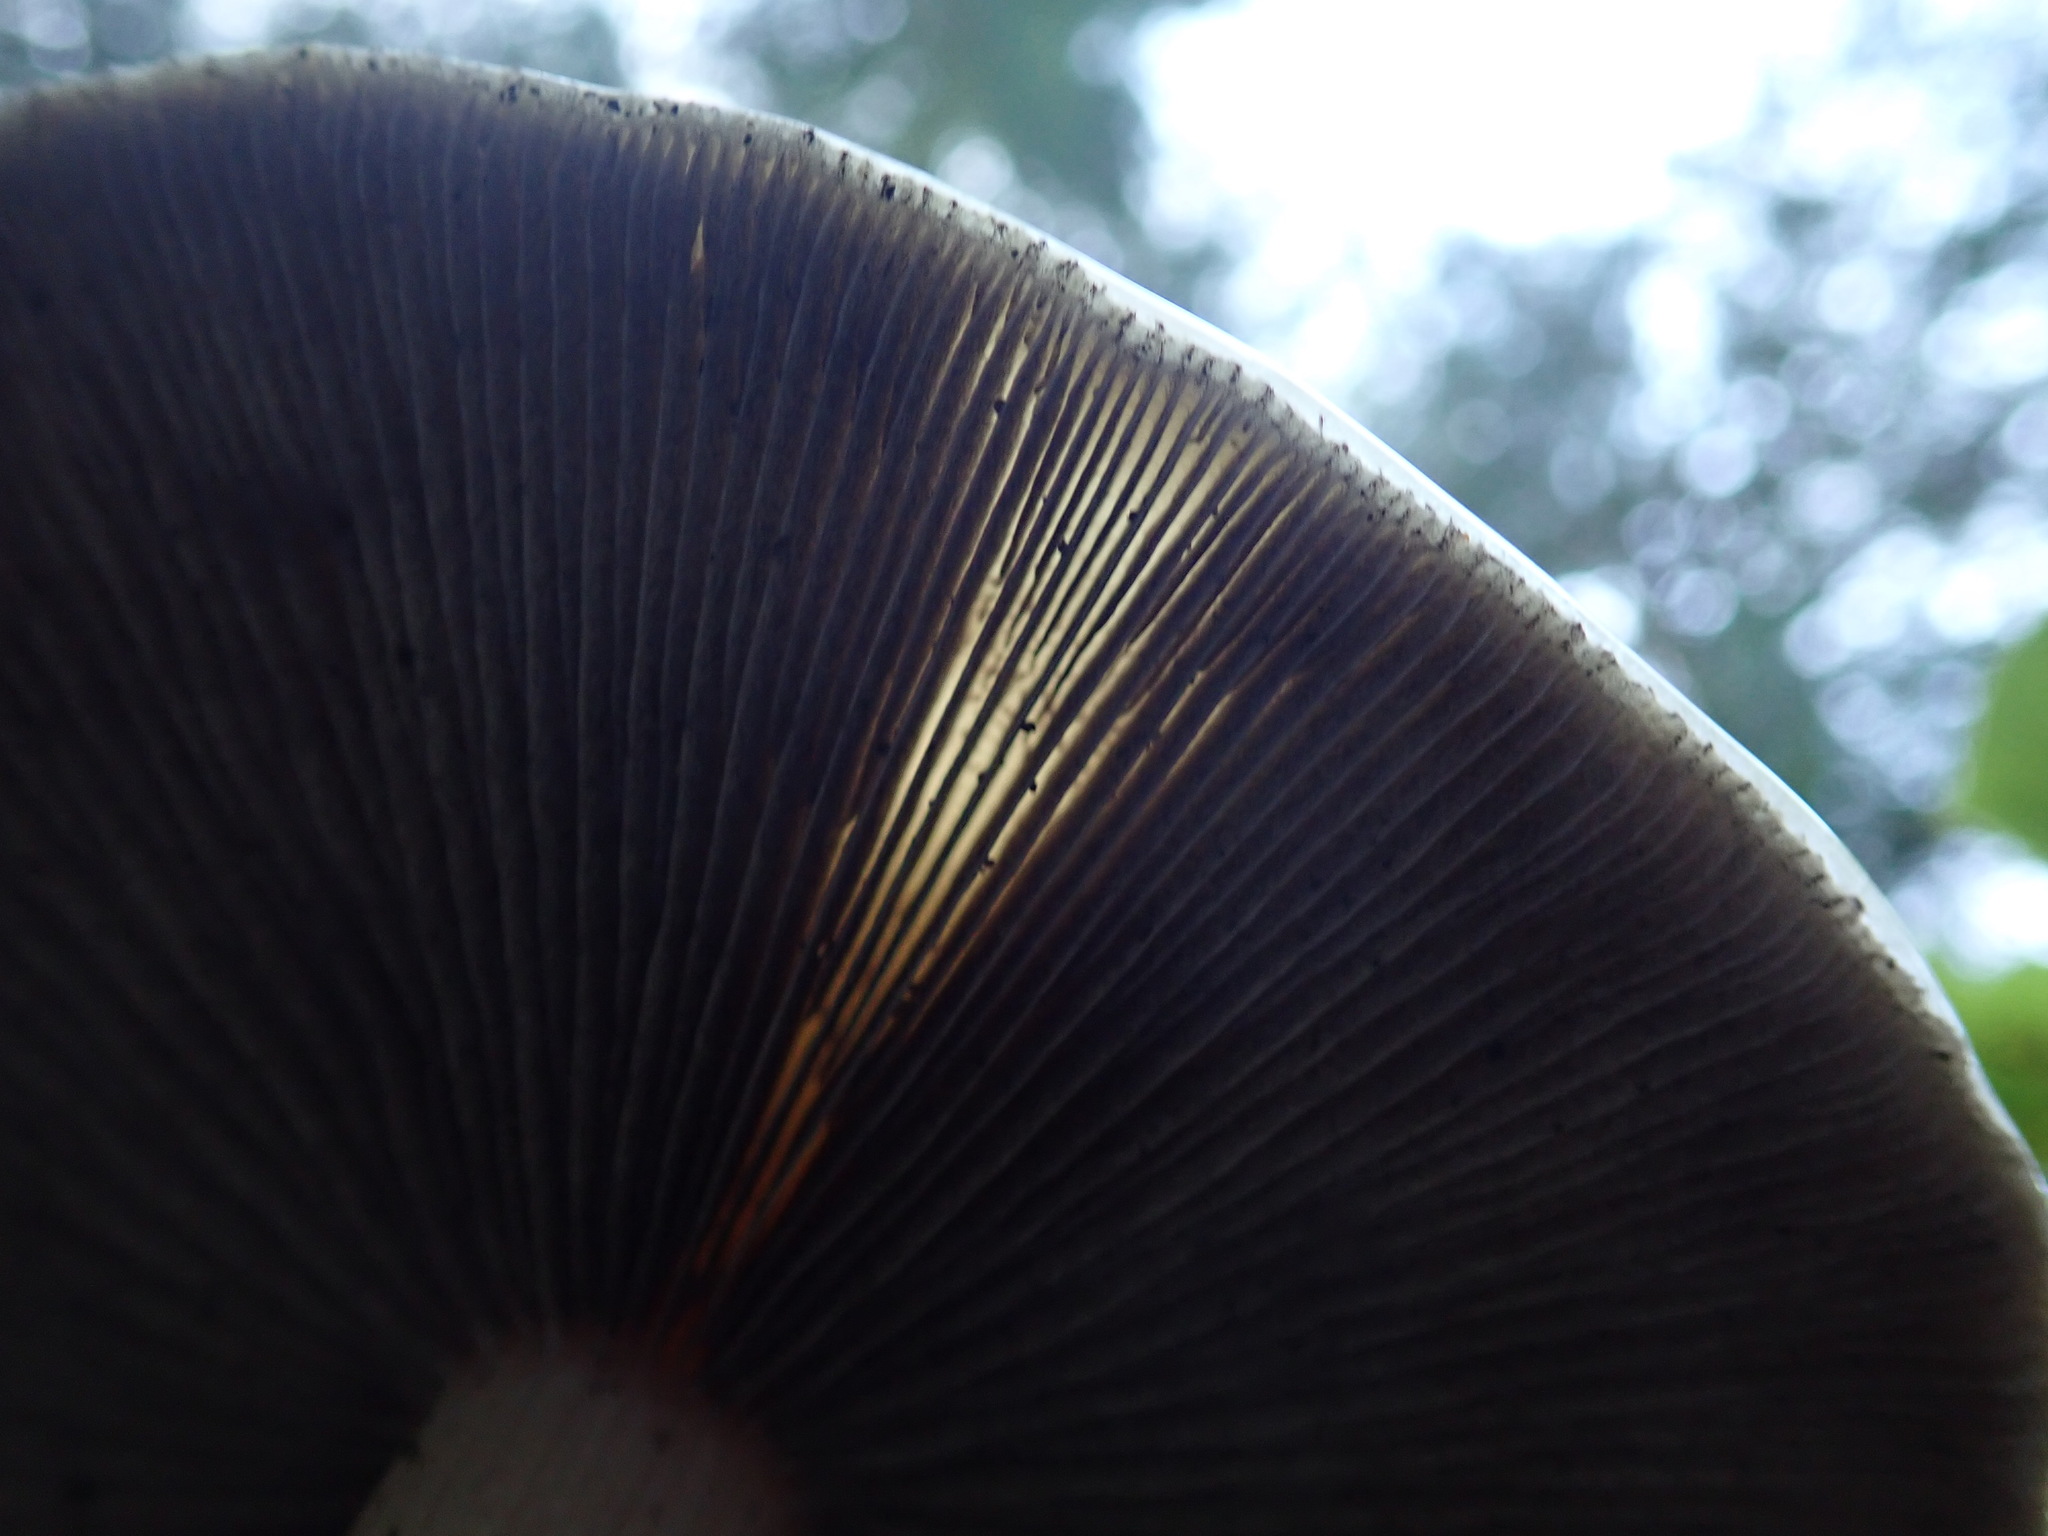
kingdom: Fungi
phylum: Basidiomycota
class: Agaricomycetes
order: Agaricales
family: Strophariaceae
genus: Stropharia
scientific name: Stropharia ambigua
